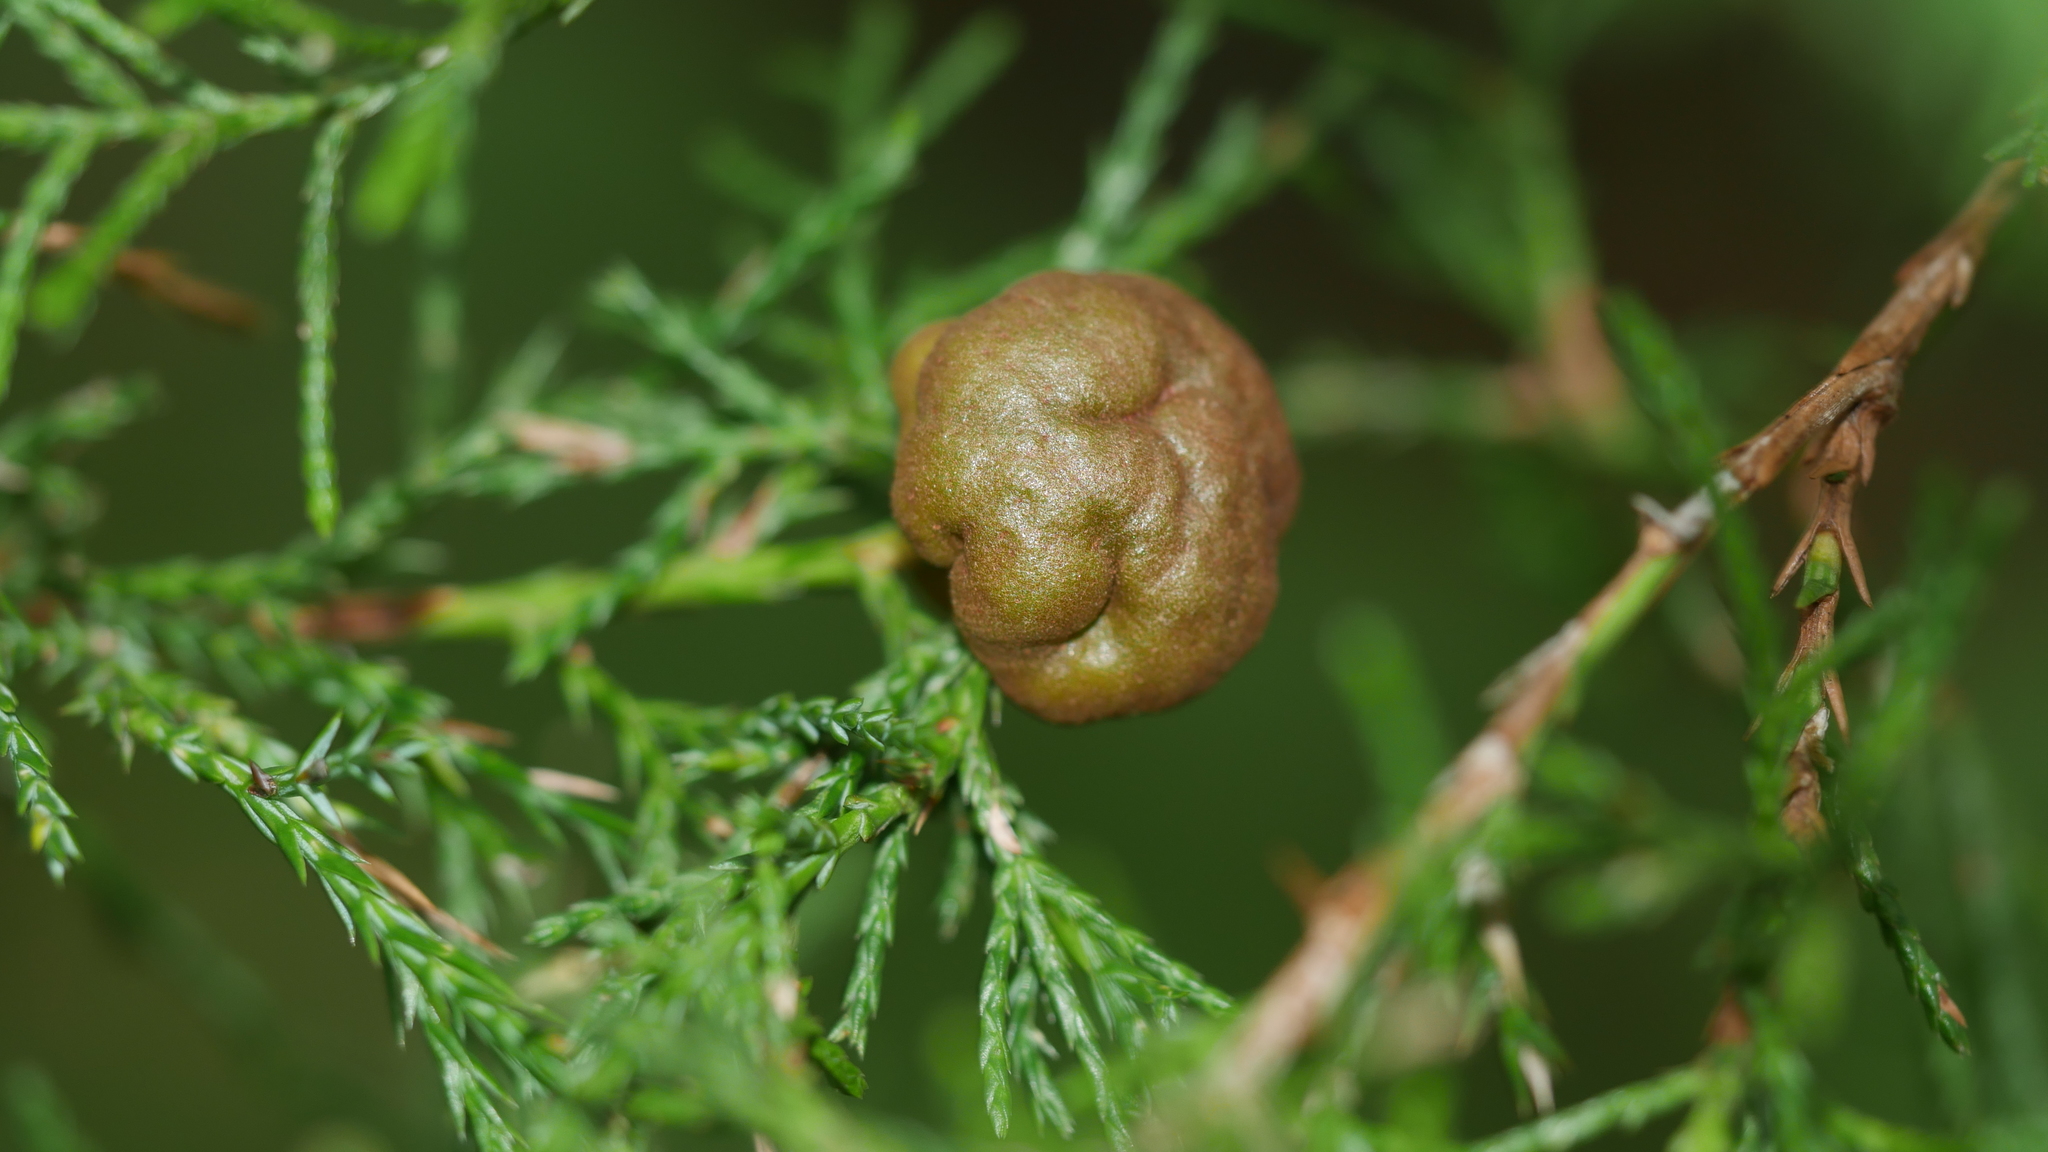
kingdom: Fungi
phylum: Basidiomycota
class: Pucciniomycetes
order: Pucciniales
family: Gymnosporangiaceae
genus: Gymnosporangium
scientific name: Gymnosporangium juniperi-virginianae
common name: Juniper-apple rust
